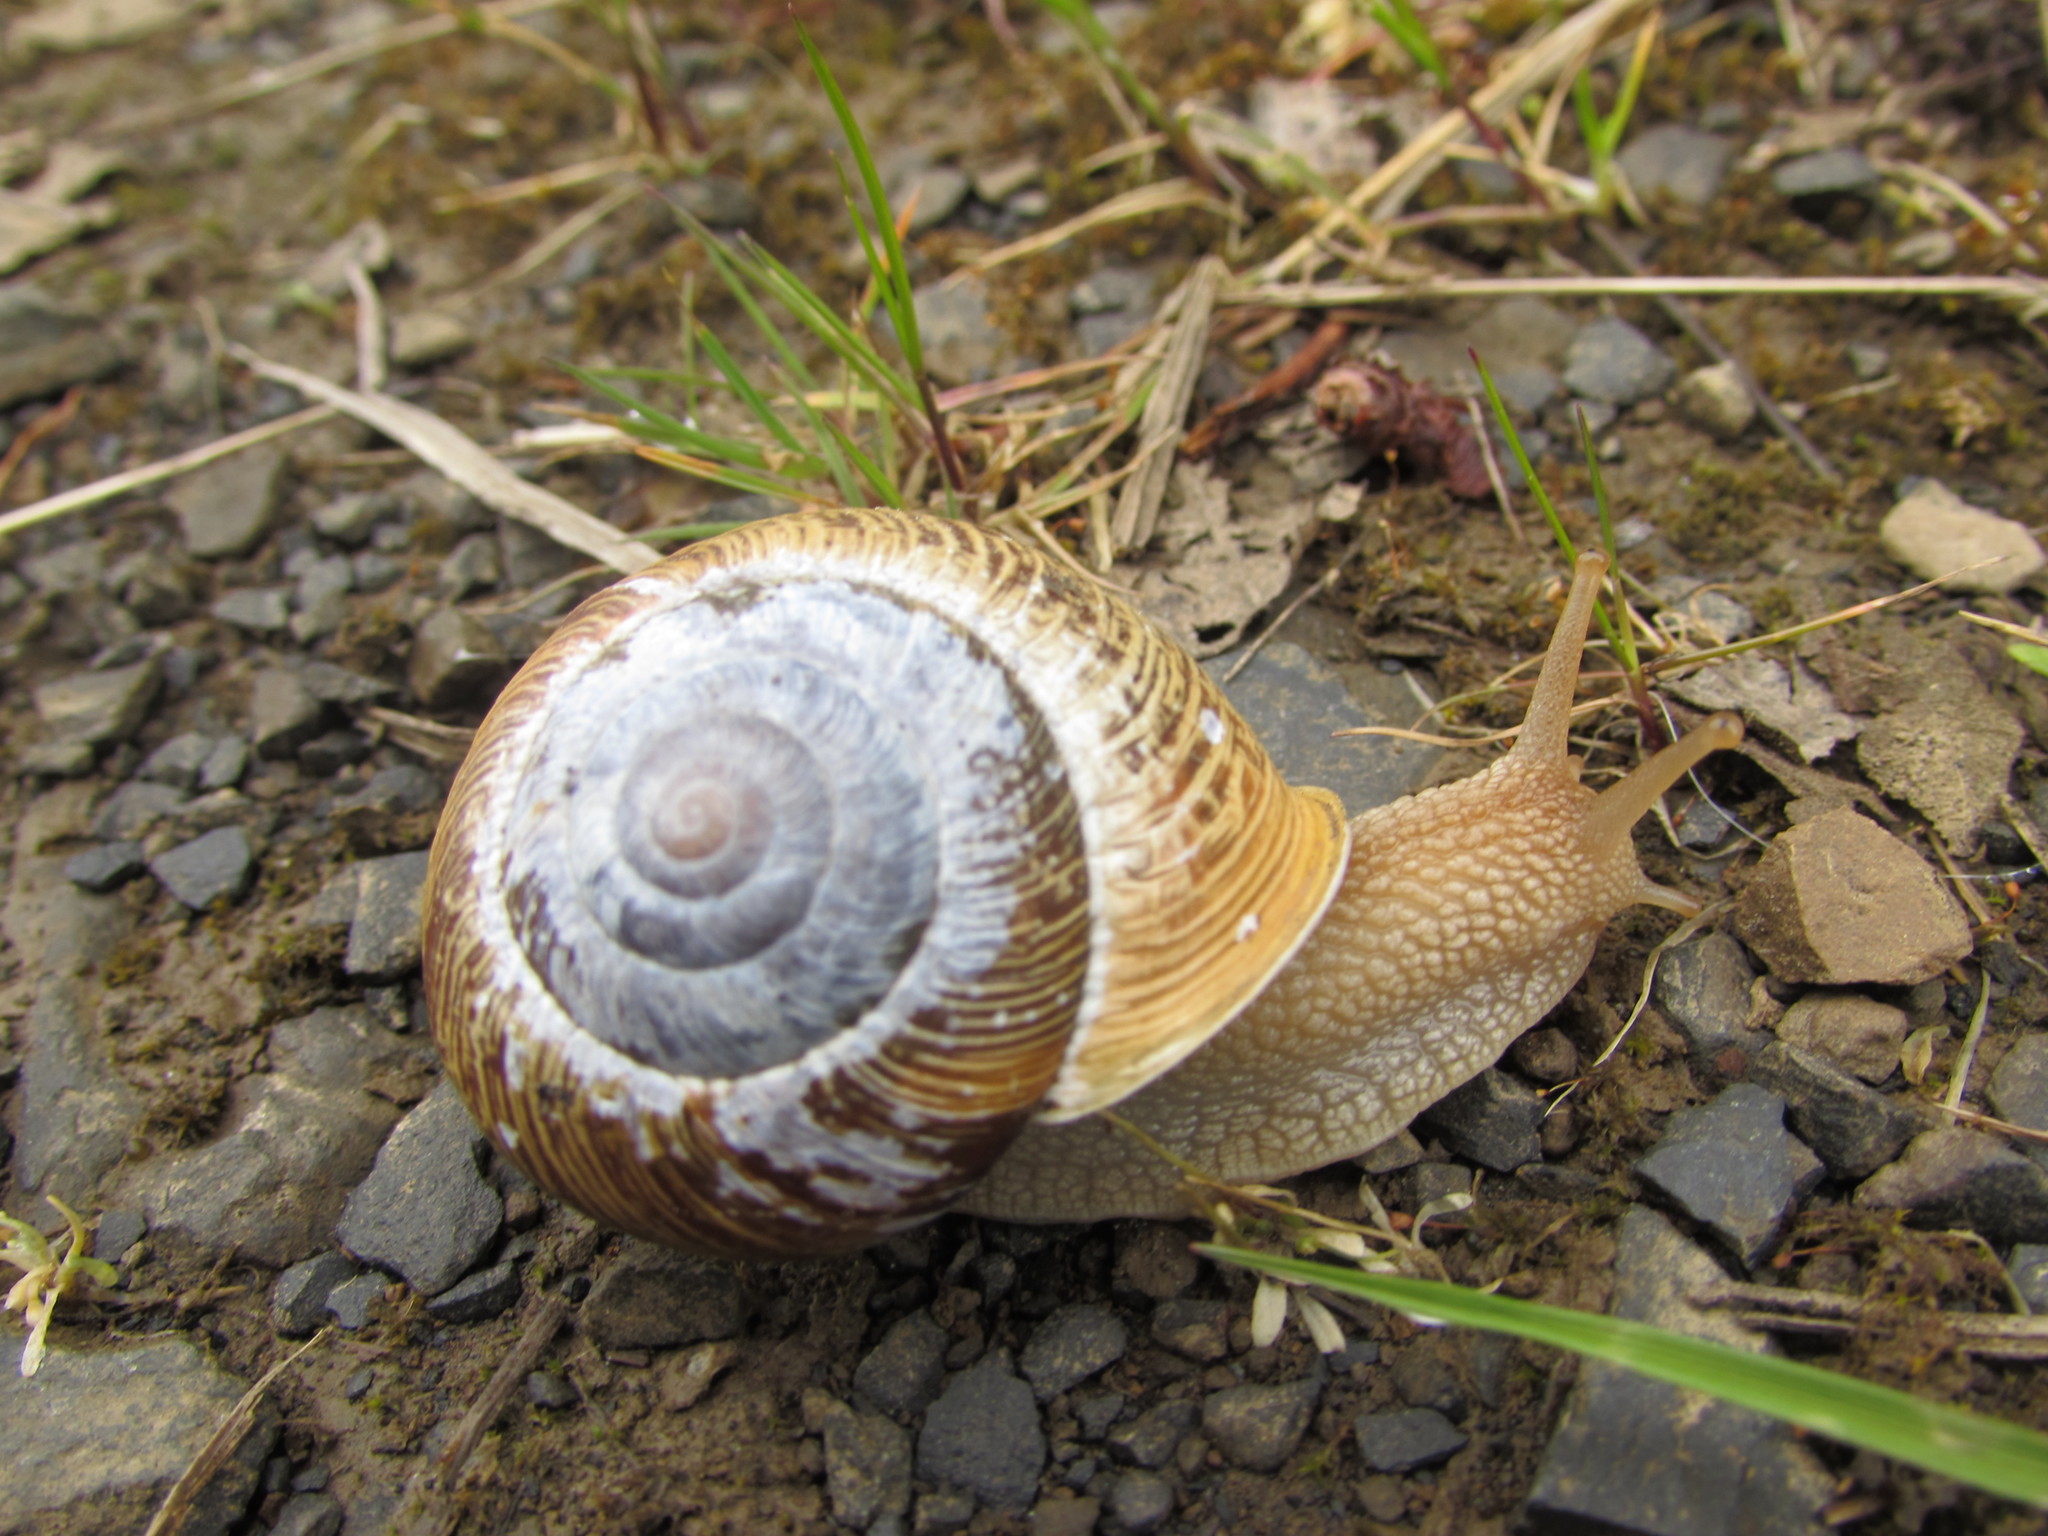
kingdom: Animalia
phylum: Mollusca
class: Gastropoda
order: Stylommatophora
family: Polygyridae
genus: Allogona
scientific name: Allogona townsendiana
